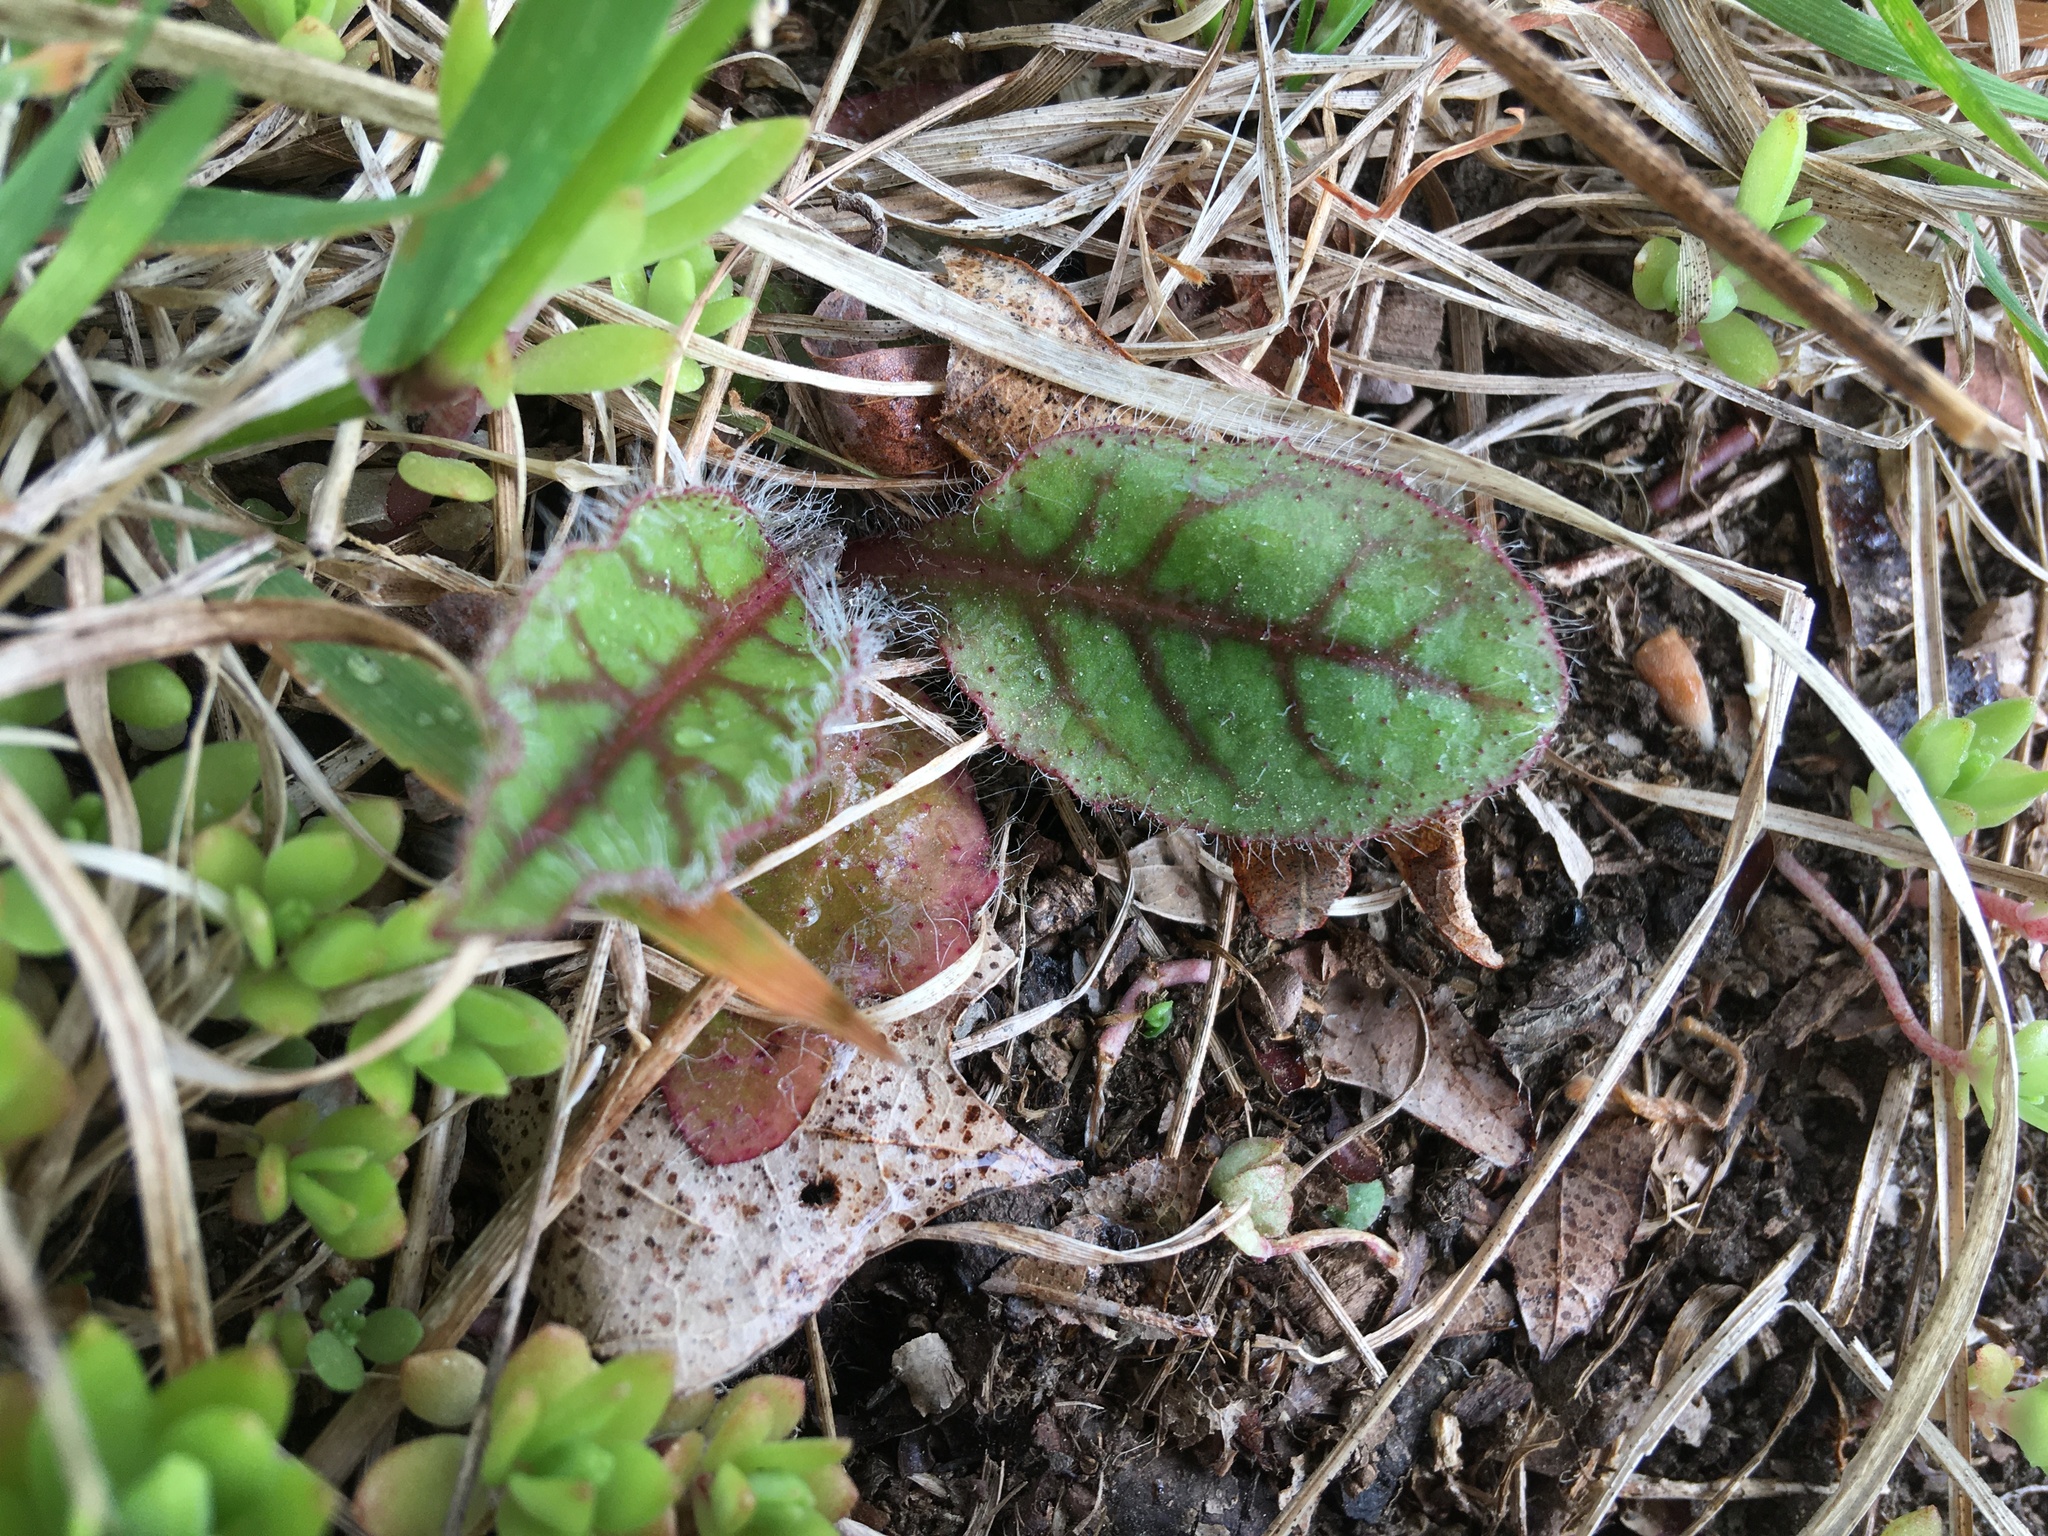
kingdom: Plantae
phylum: Tracheophyta
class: Magnoliopsida
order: Asterales
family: Asteraceae
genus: Hieracium
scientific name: Hieracium venosum
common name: Rattlesnake hawkweed
